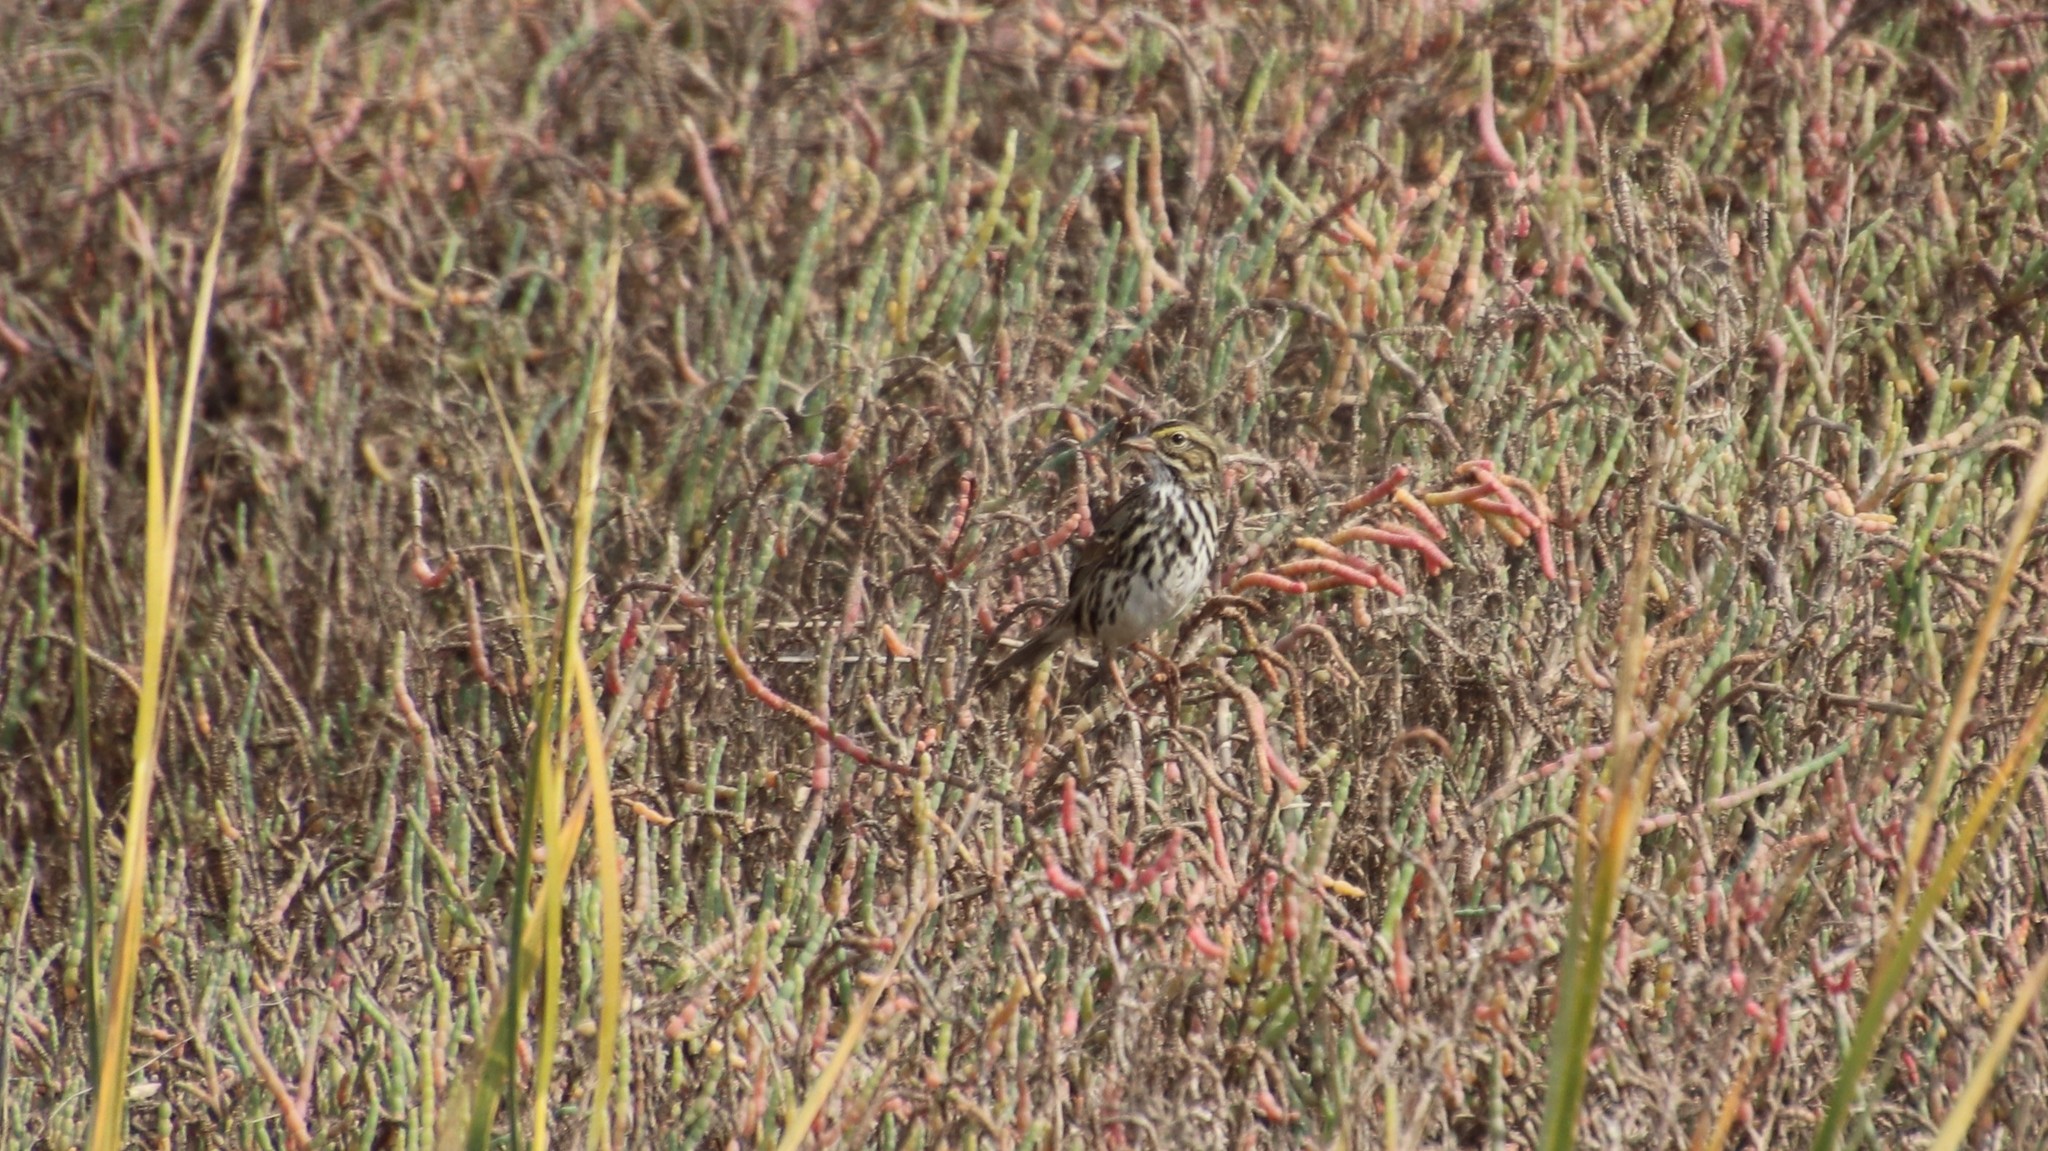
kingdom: Animalia
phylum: Chordata
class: Aves
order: Passeriformes
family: Passerellidae
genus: Passerculus
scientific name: Passerculus sandwichensis
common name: Savannah sparrow
